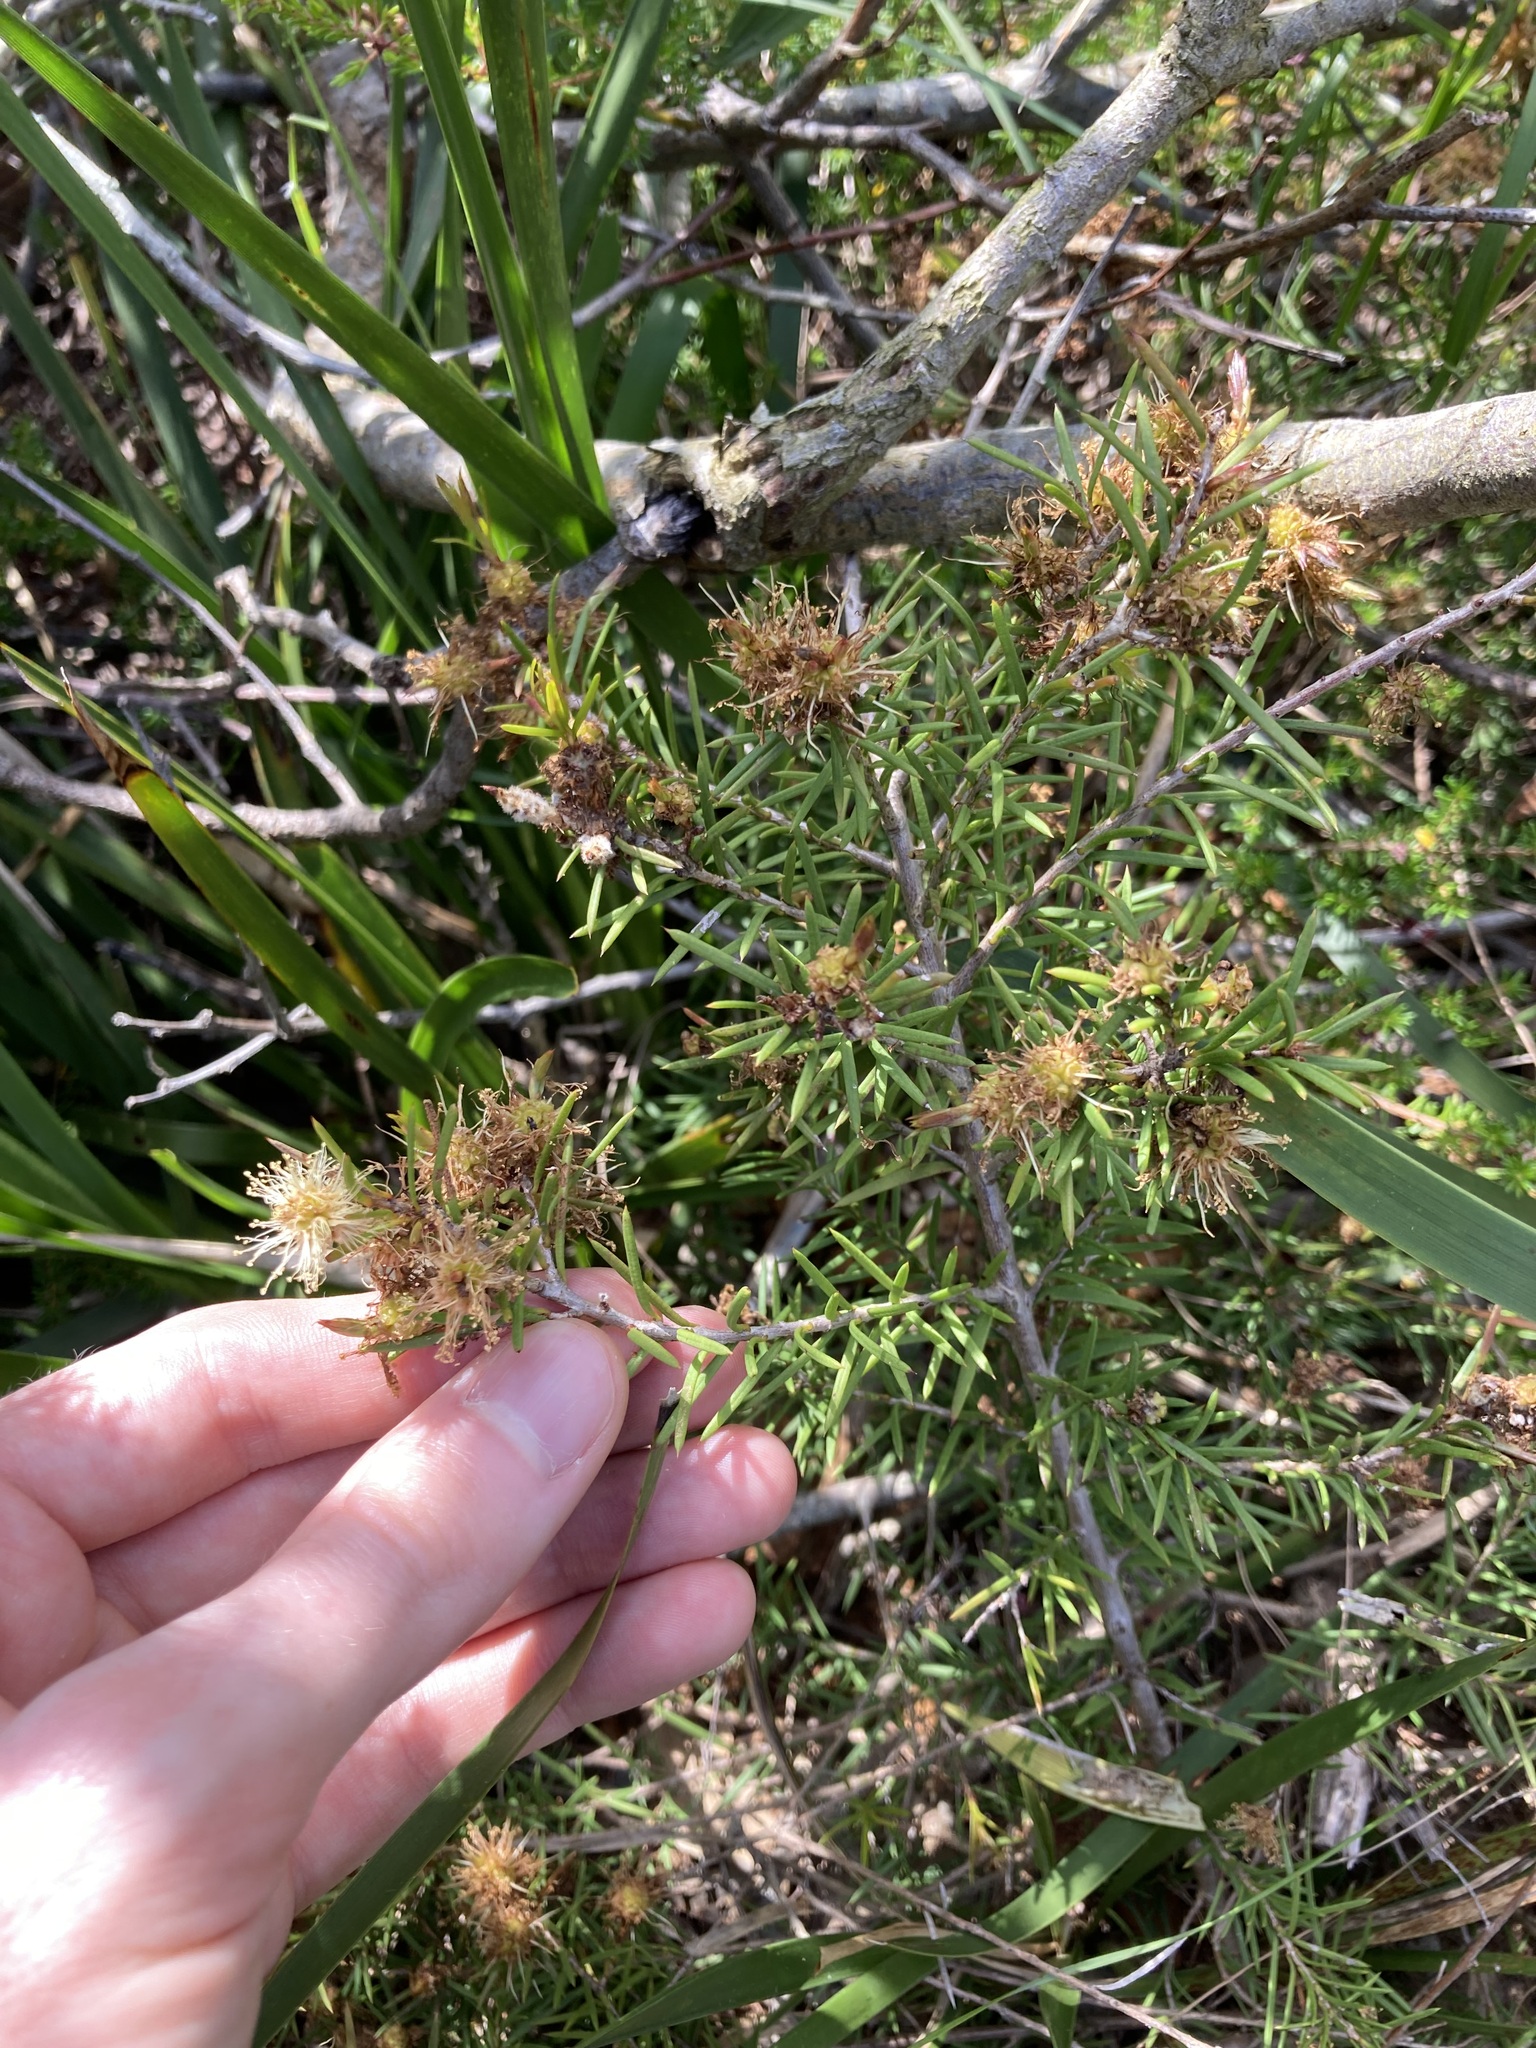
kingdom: Plantae
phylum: Tracheophyta
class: Magnoliopsida
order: Myrtales
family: Myrtaceae
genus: Melaleuca
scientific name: Melaleuca nodosa
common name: Prickly-leaf paperbark
